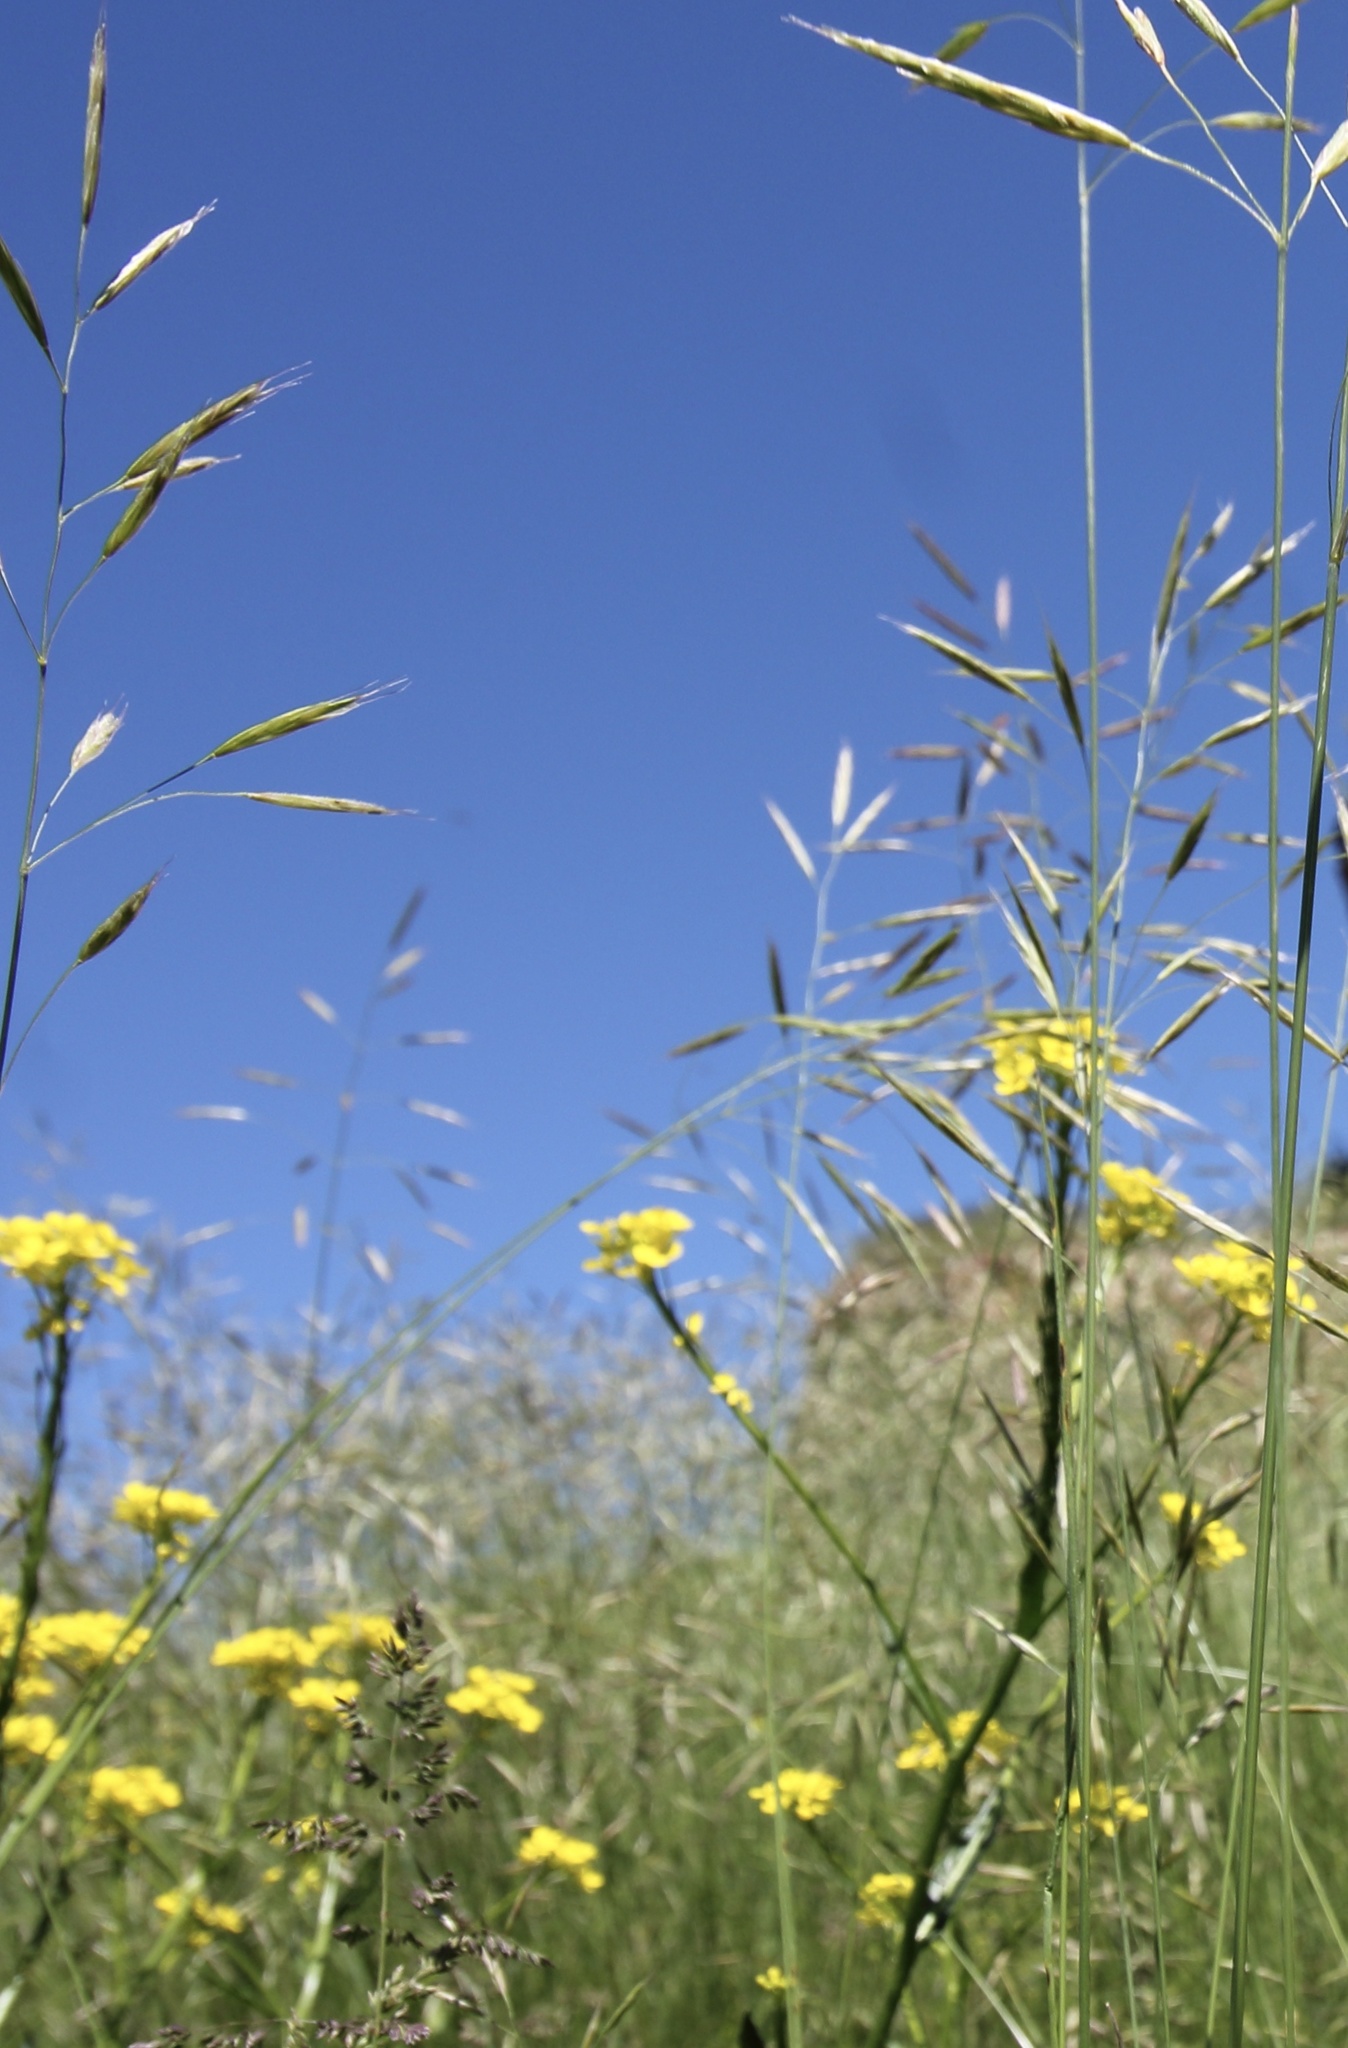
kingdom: Plantae
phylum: Tracheophyta
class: Liliopsida
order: Poales
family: Poaceae
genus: Bromus
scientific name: Bromus riparius
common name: Meadow brome
